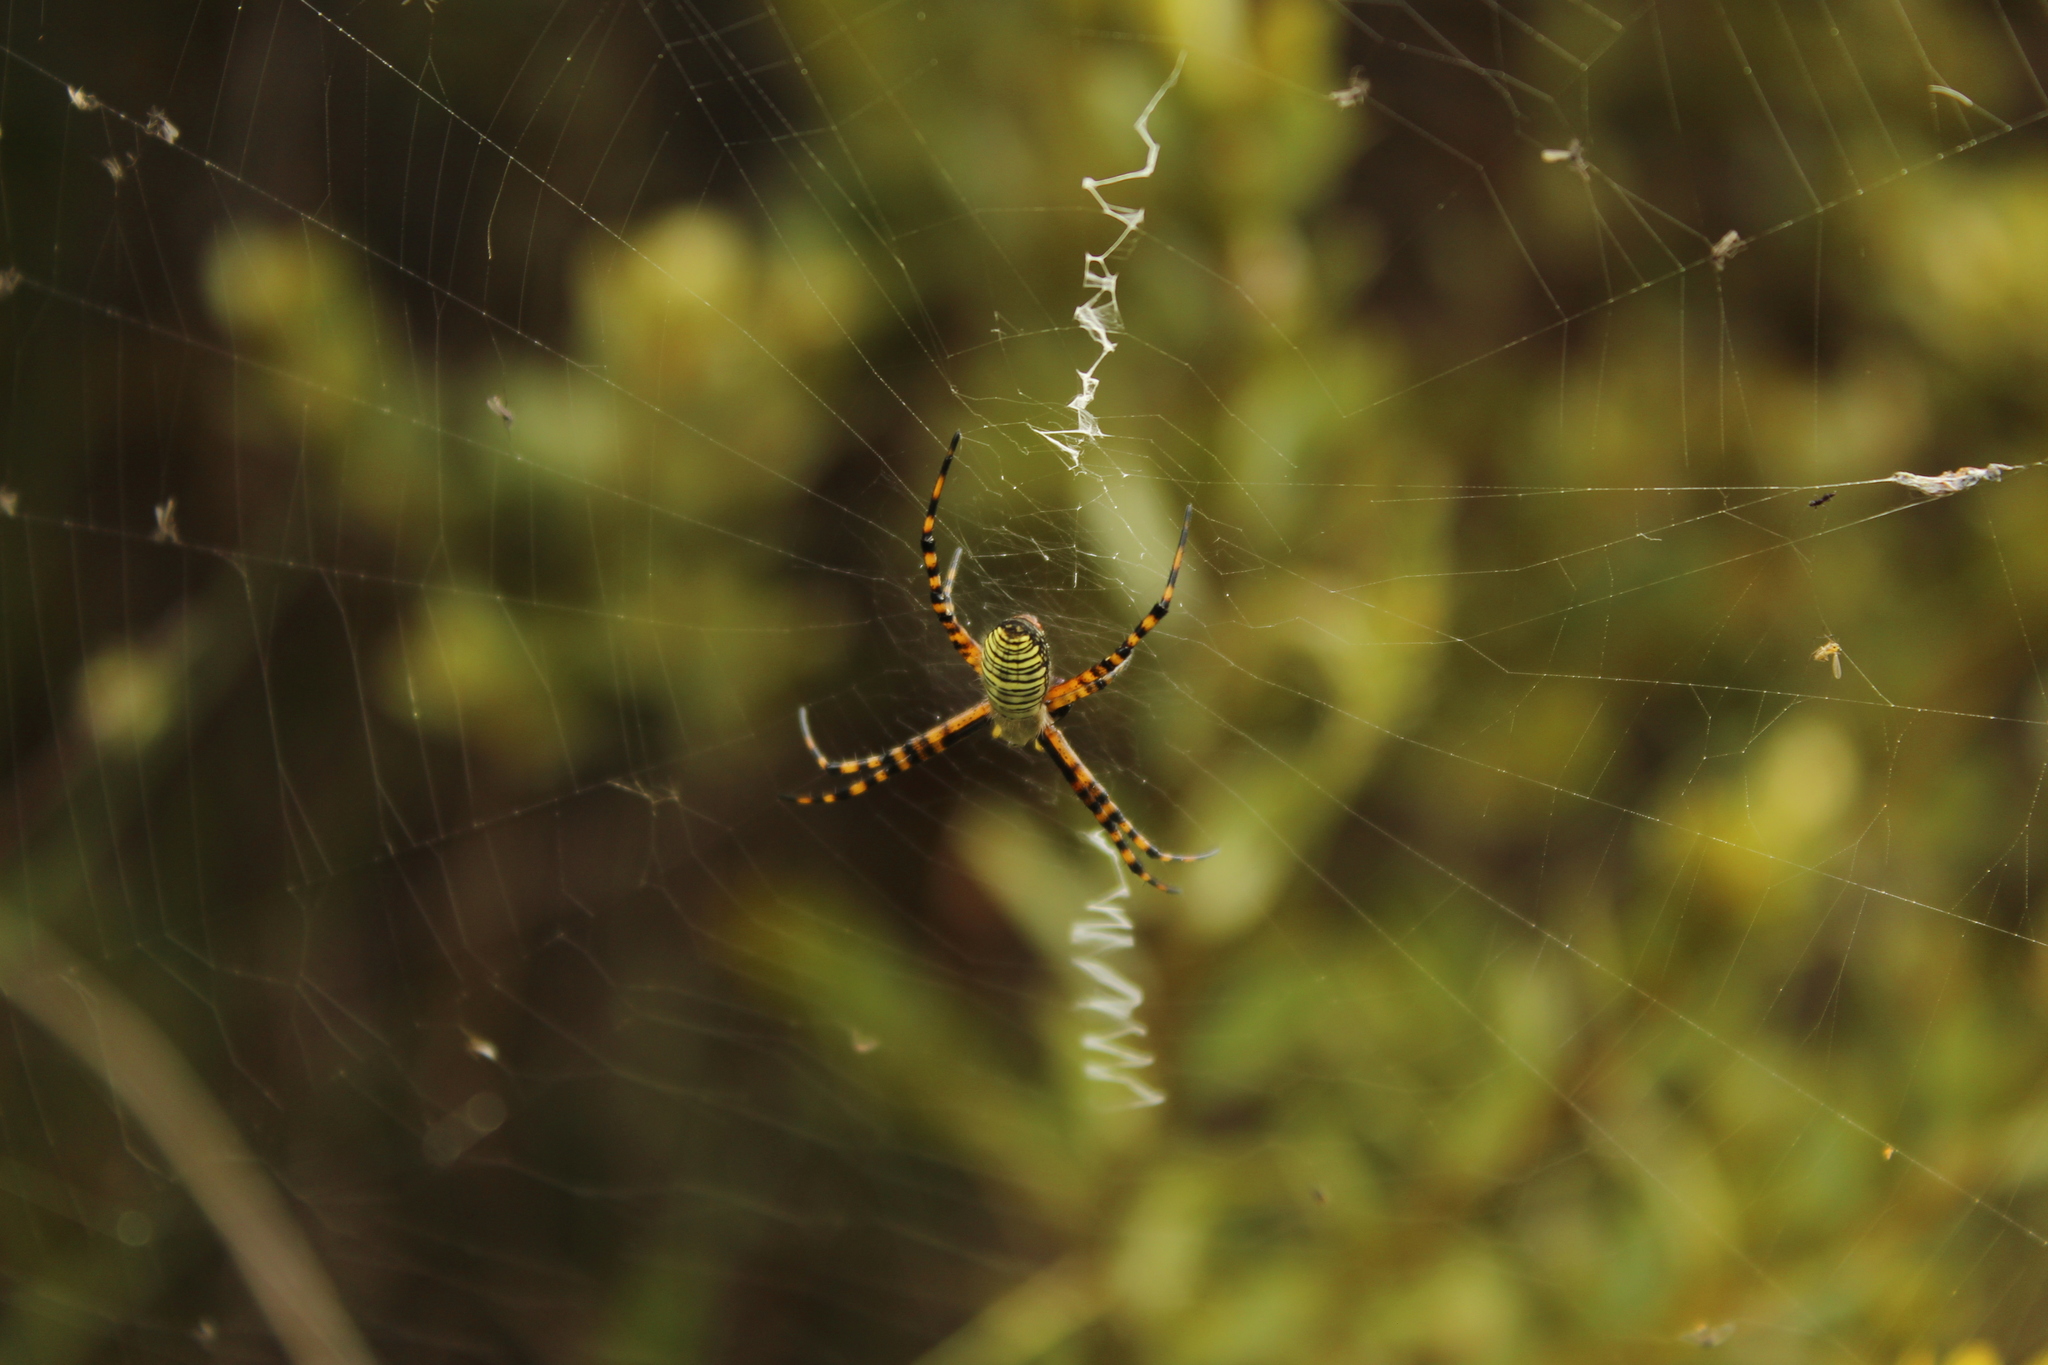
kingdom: Animalia
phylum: Arthropoda
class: Arachnida
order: Araneae
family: Araneidae
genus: Argiope
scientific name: Argiope trifasciata
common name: Banded garden spider
